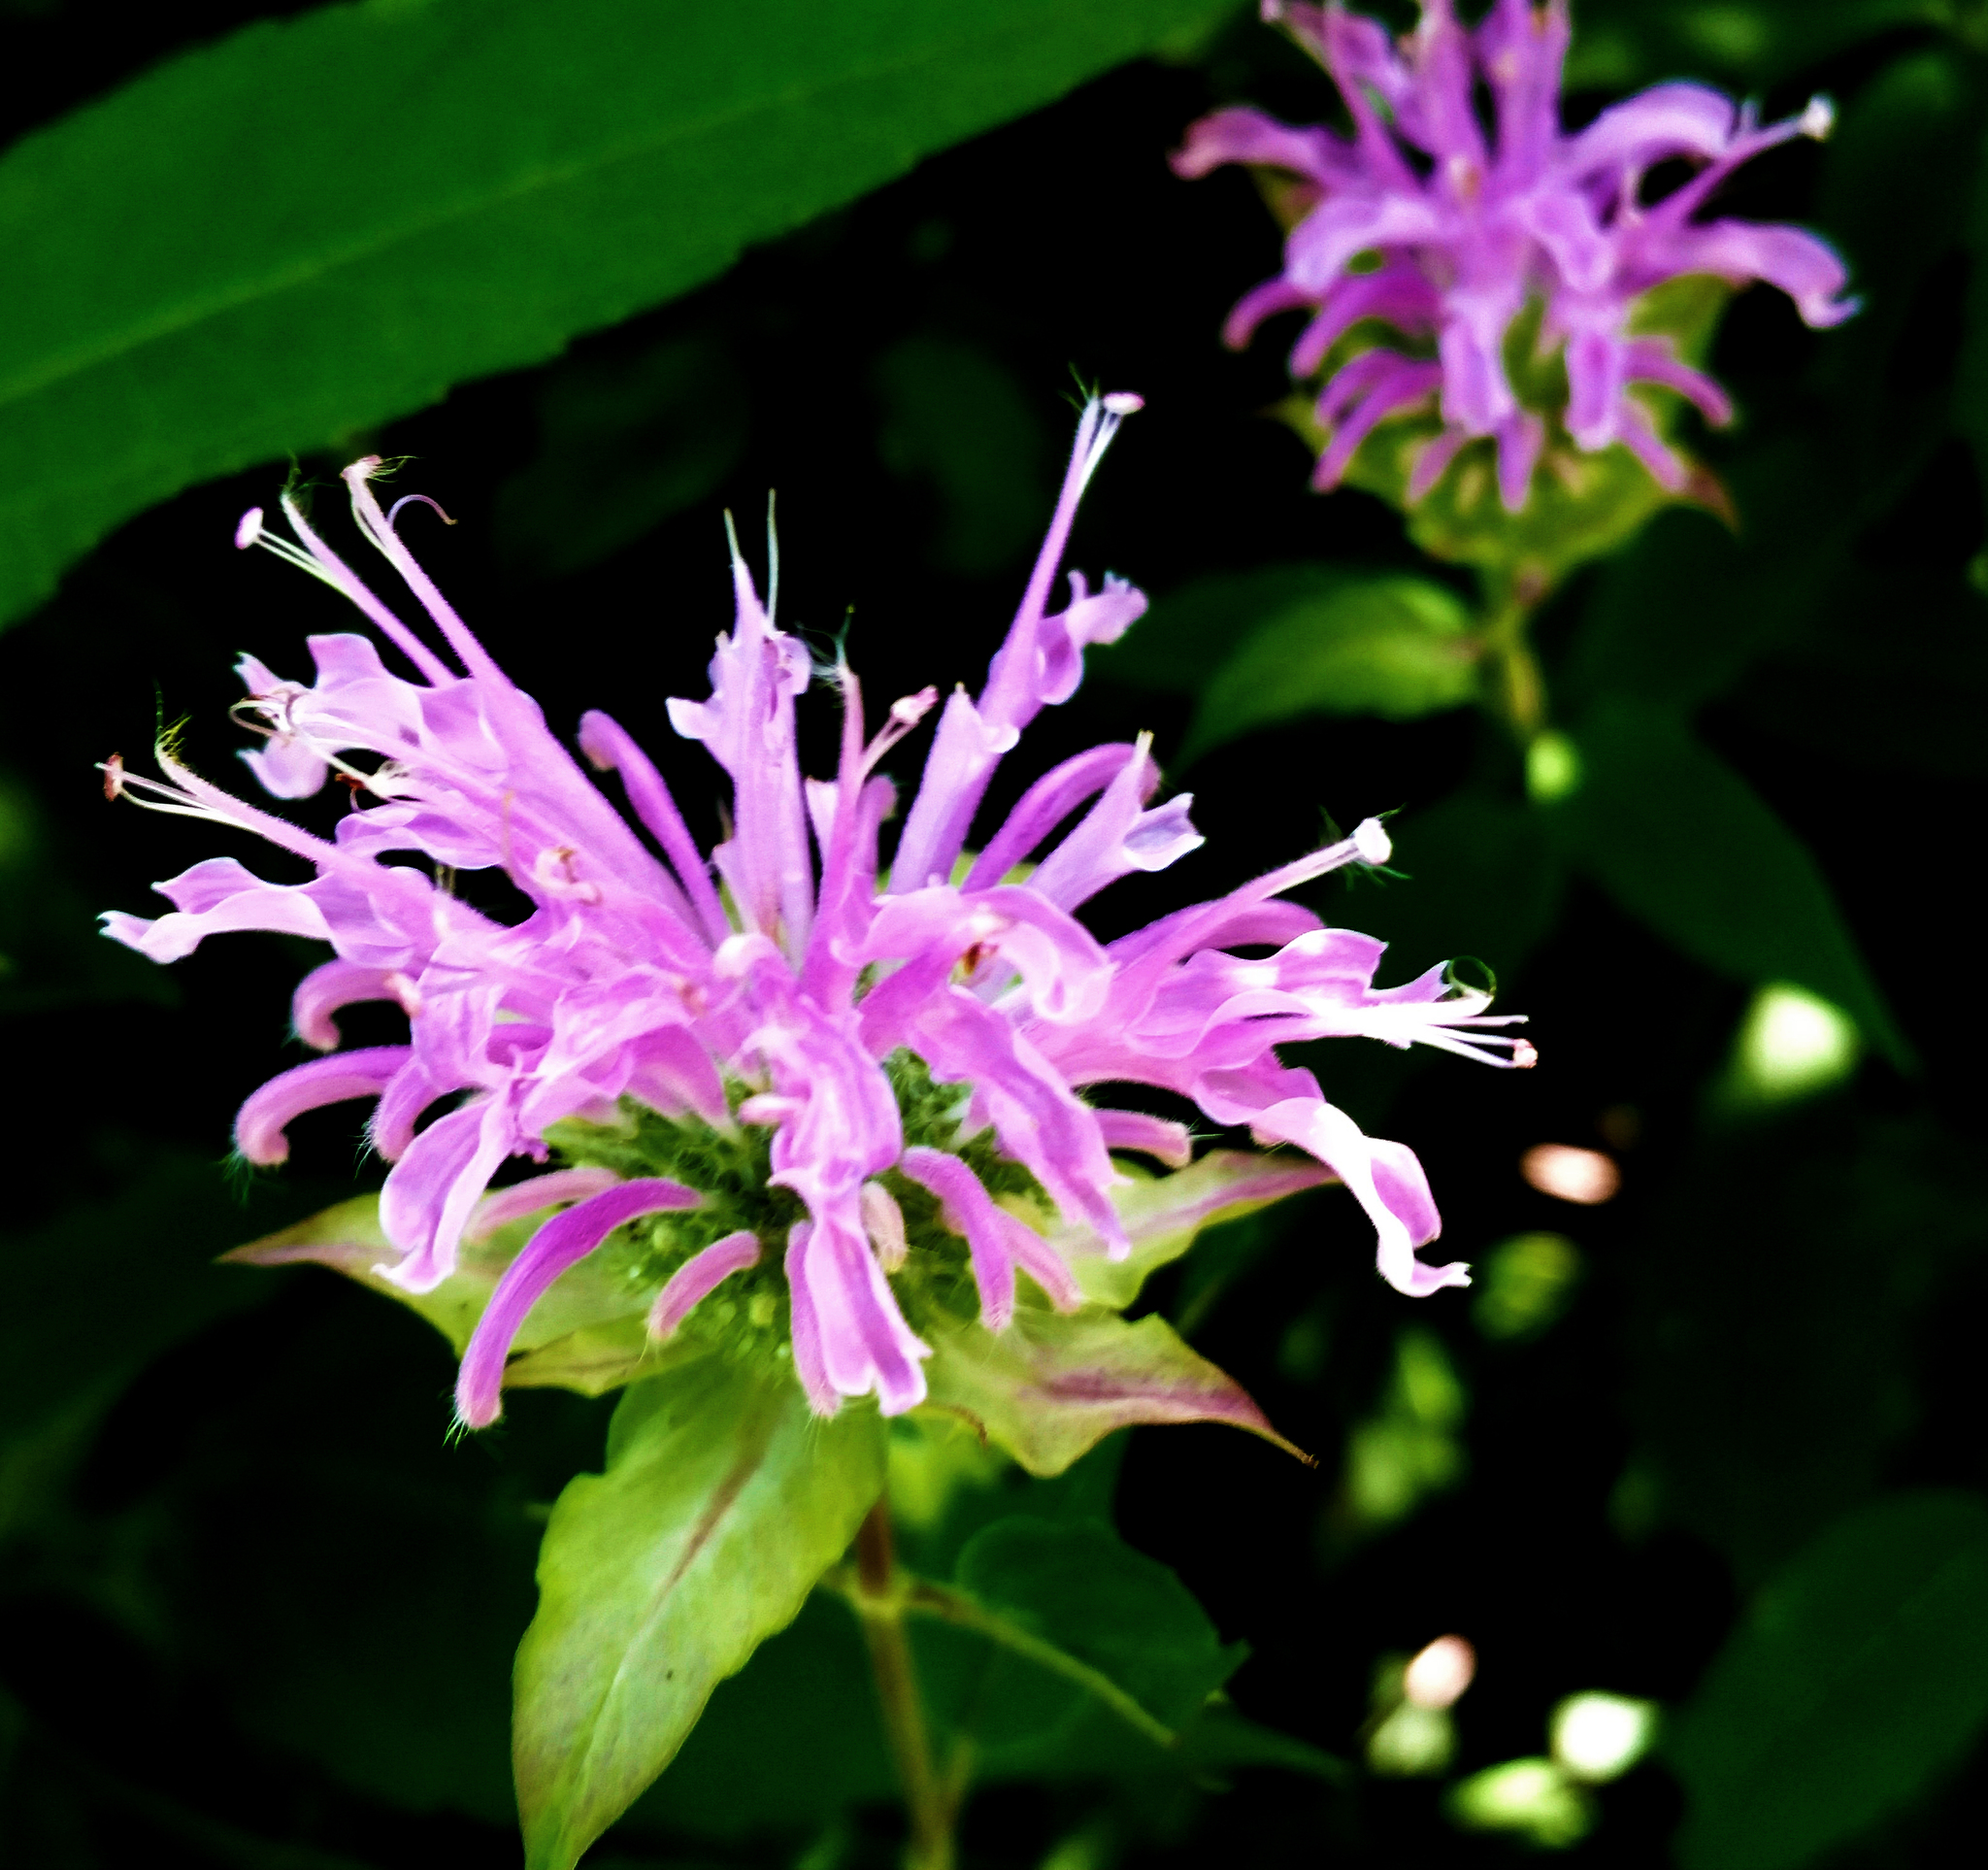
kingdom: Plantae
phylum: Tracheophyta
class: Magnoliopsida
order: Lamiales
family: Lamiaceae
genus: Monarda
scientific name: Monarda fistulosa
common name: Purple beebalm
